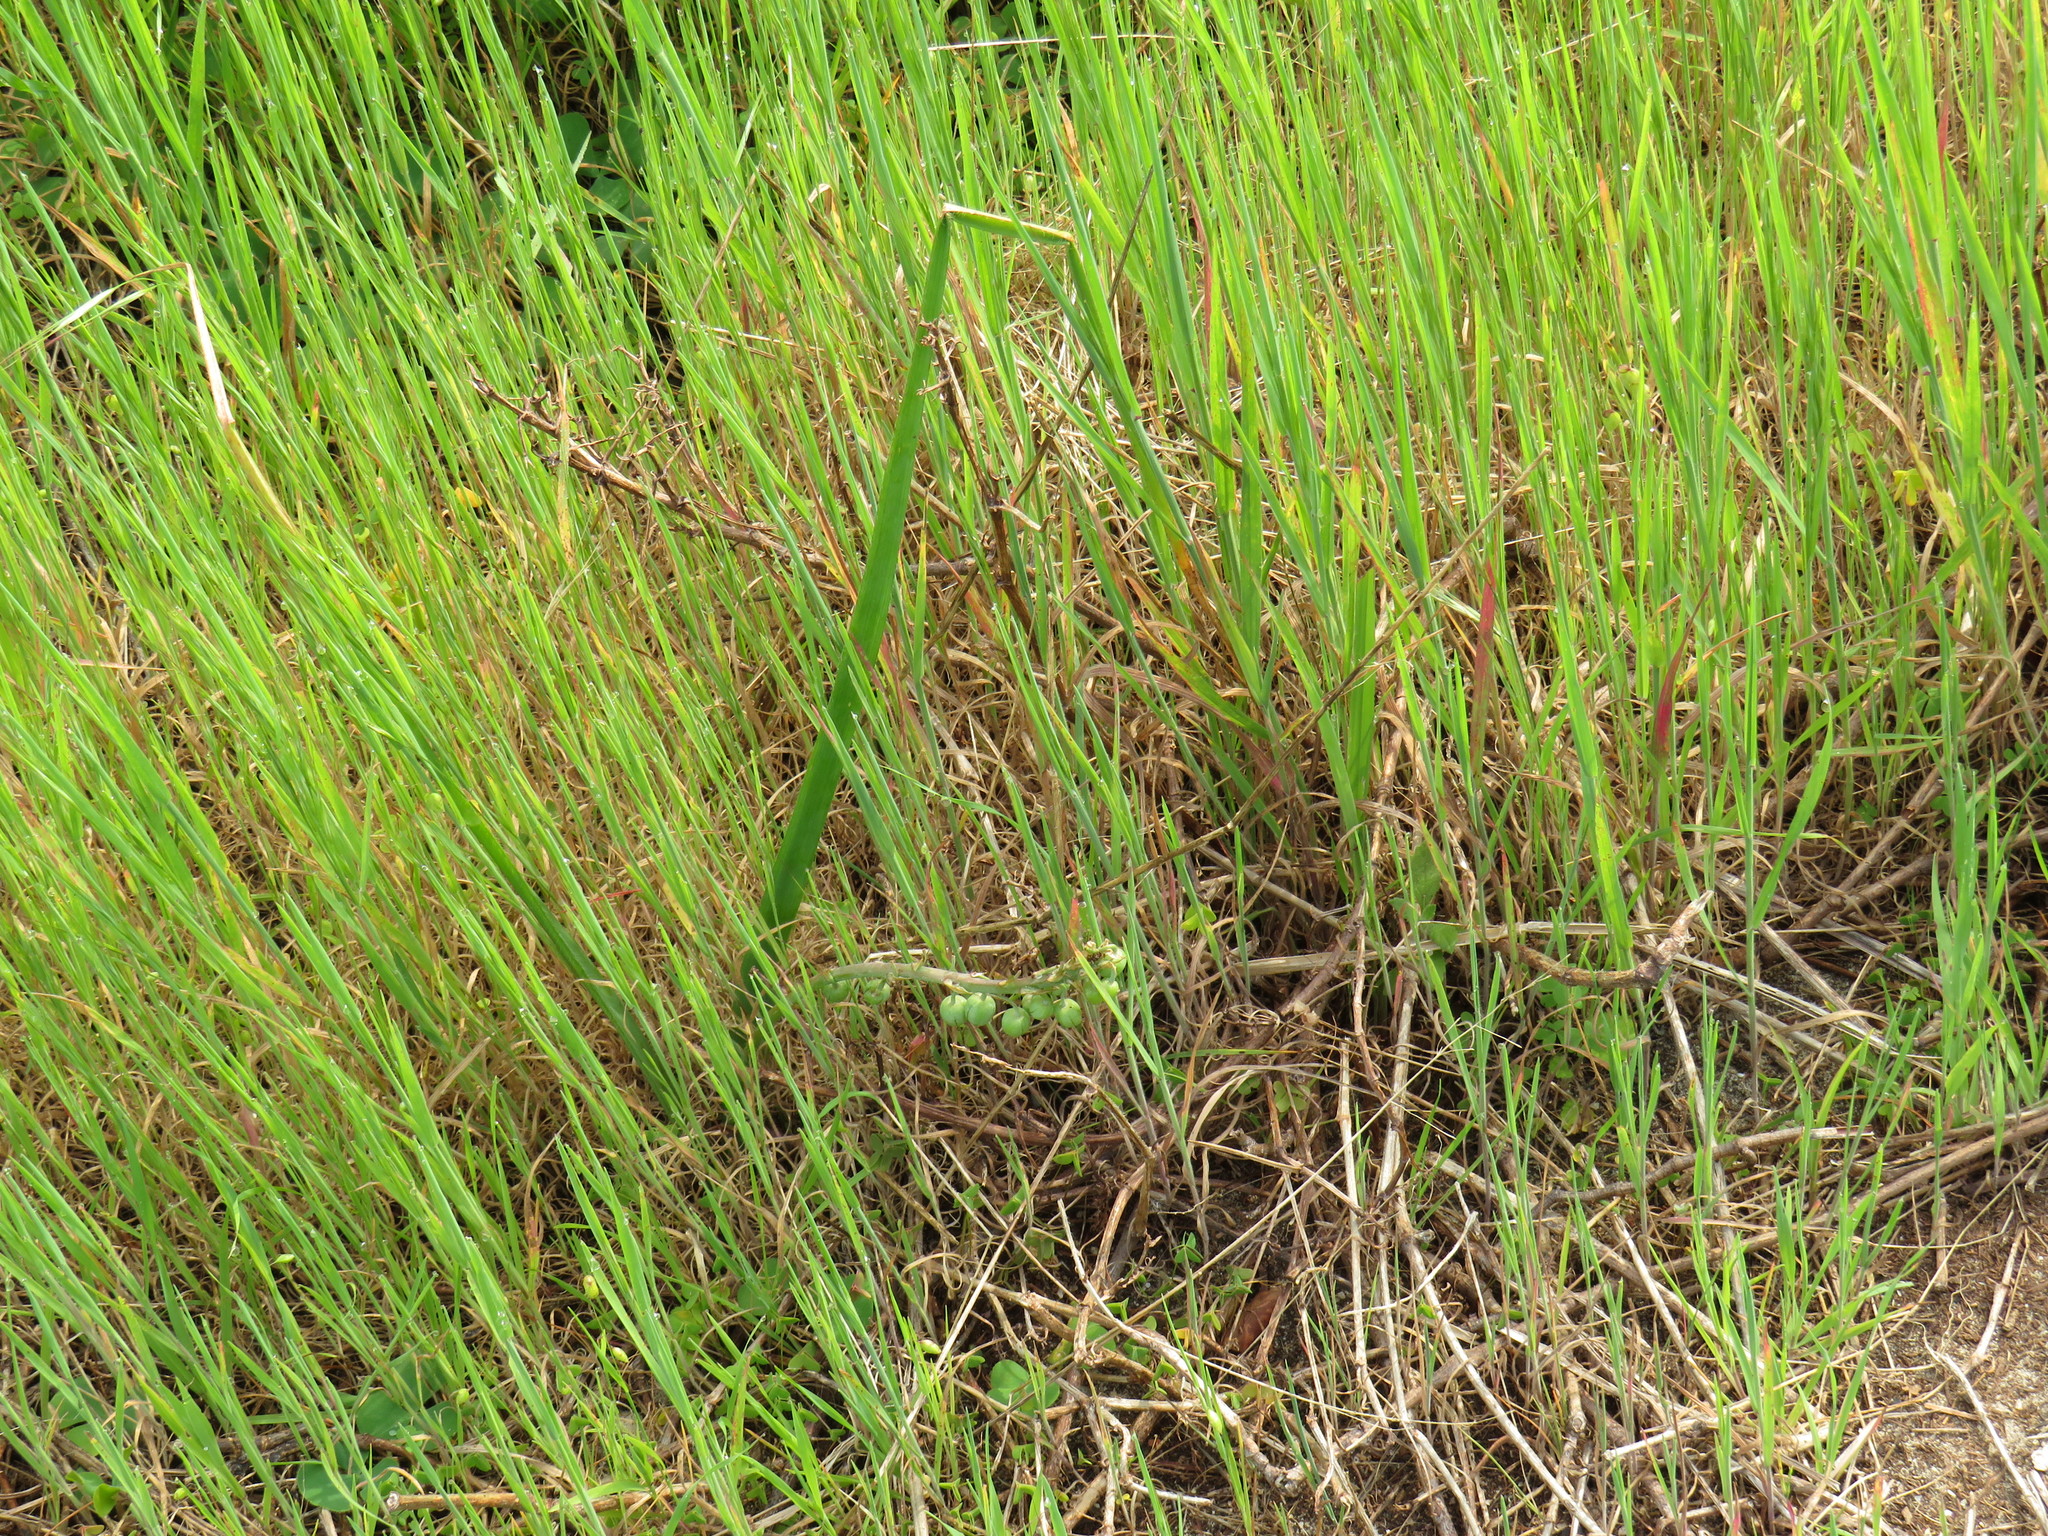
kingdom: Plantae
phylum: Tracheophyta
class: Liliopsida
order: Asparagales
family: Asphodelaceae
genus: Trachyandra
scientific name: Trachyandra ciliata
